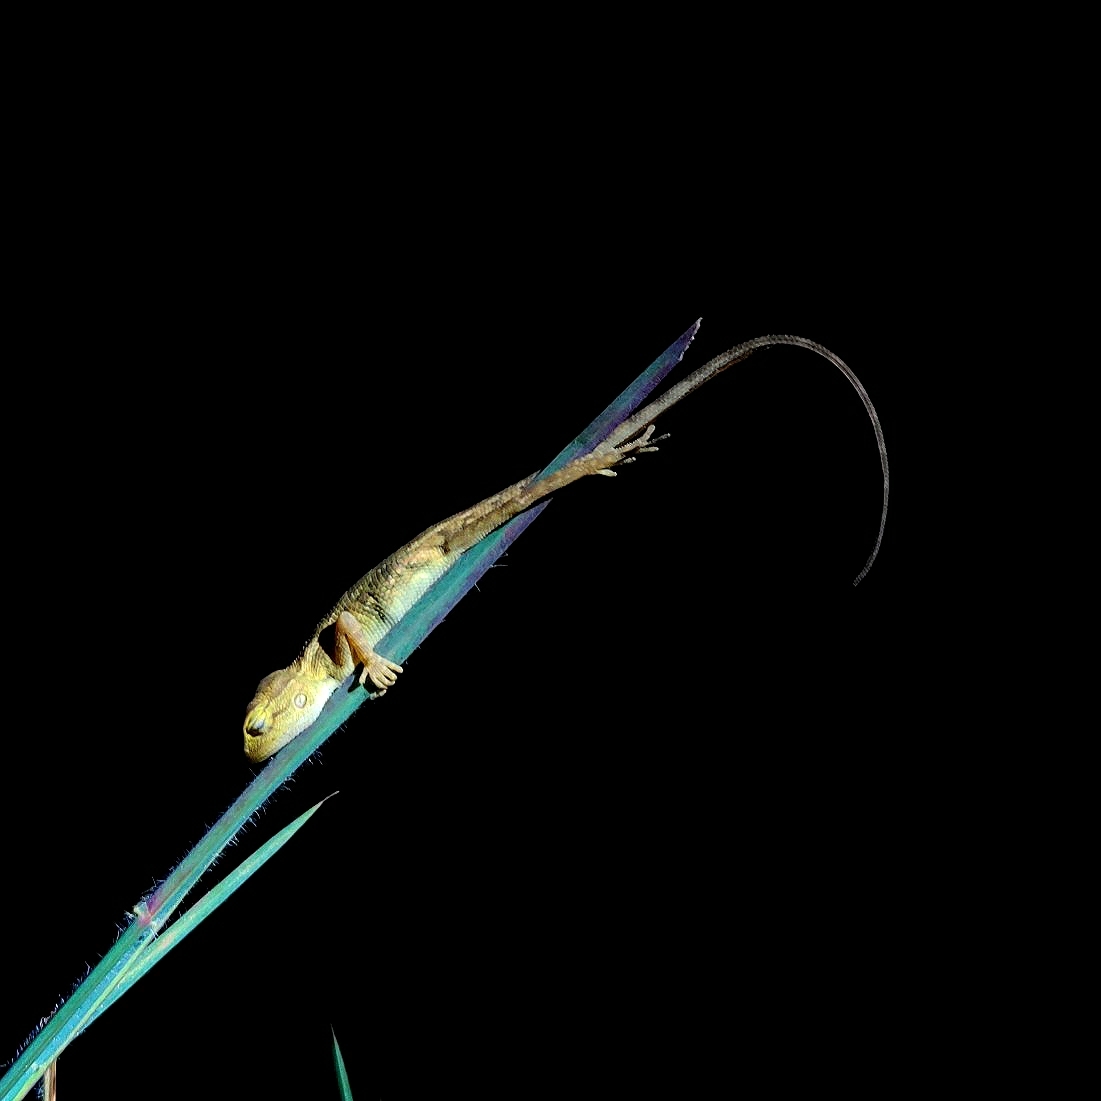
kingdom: Animalia
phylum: Chordata
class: Squamata
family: Agamidae
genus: Calotes
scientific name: Calotes versicolor
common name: Oriental garden lizard
